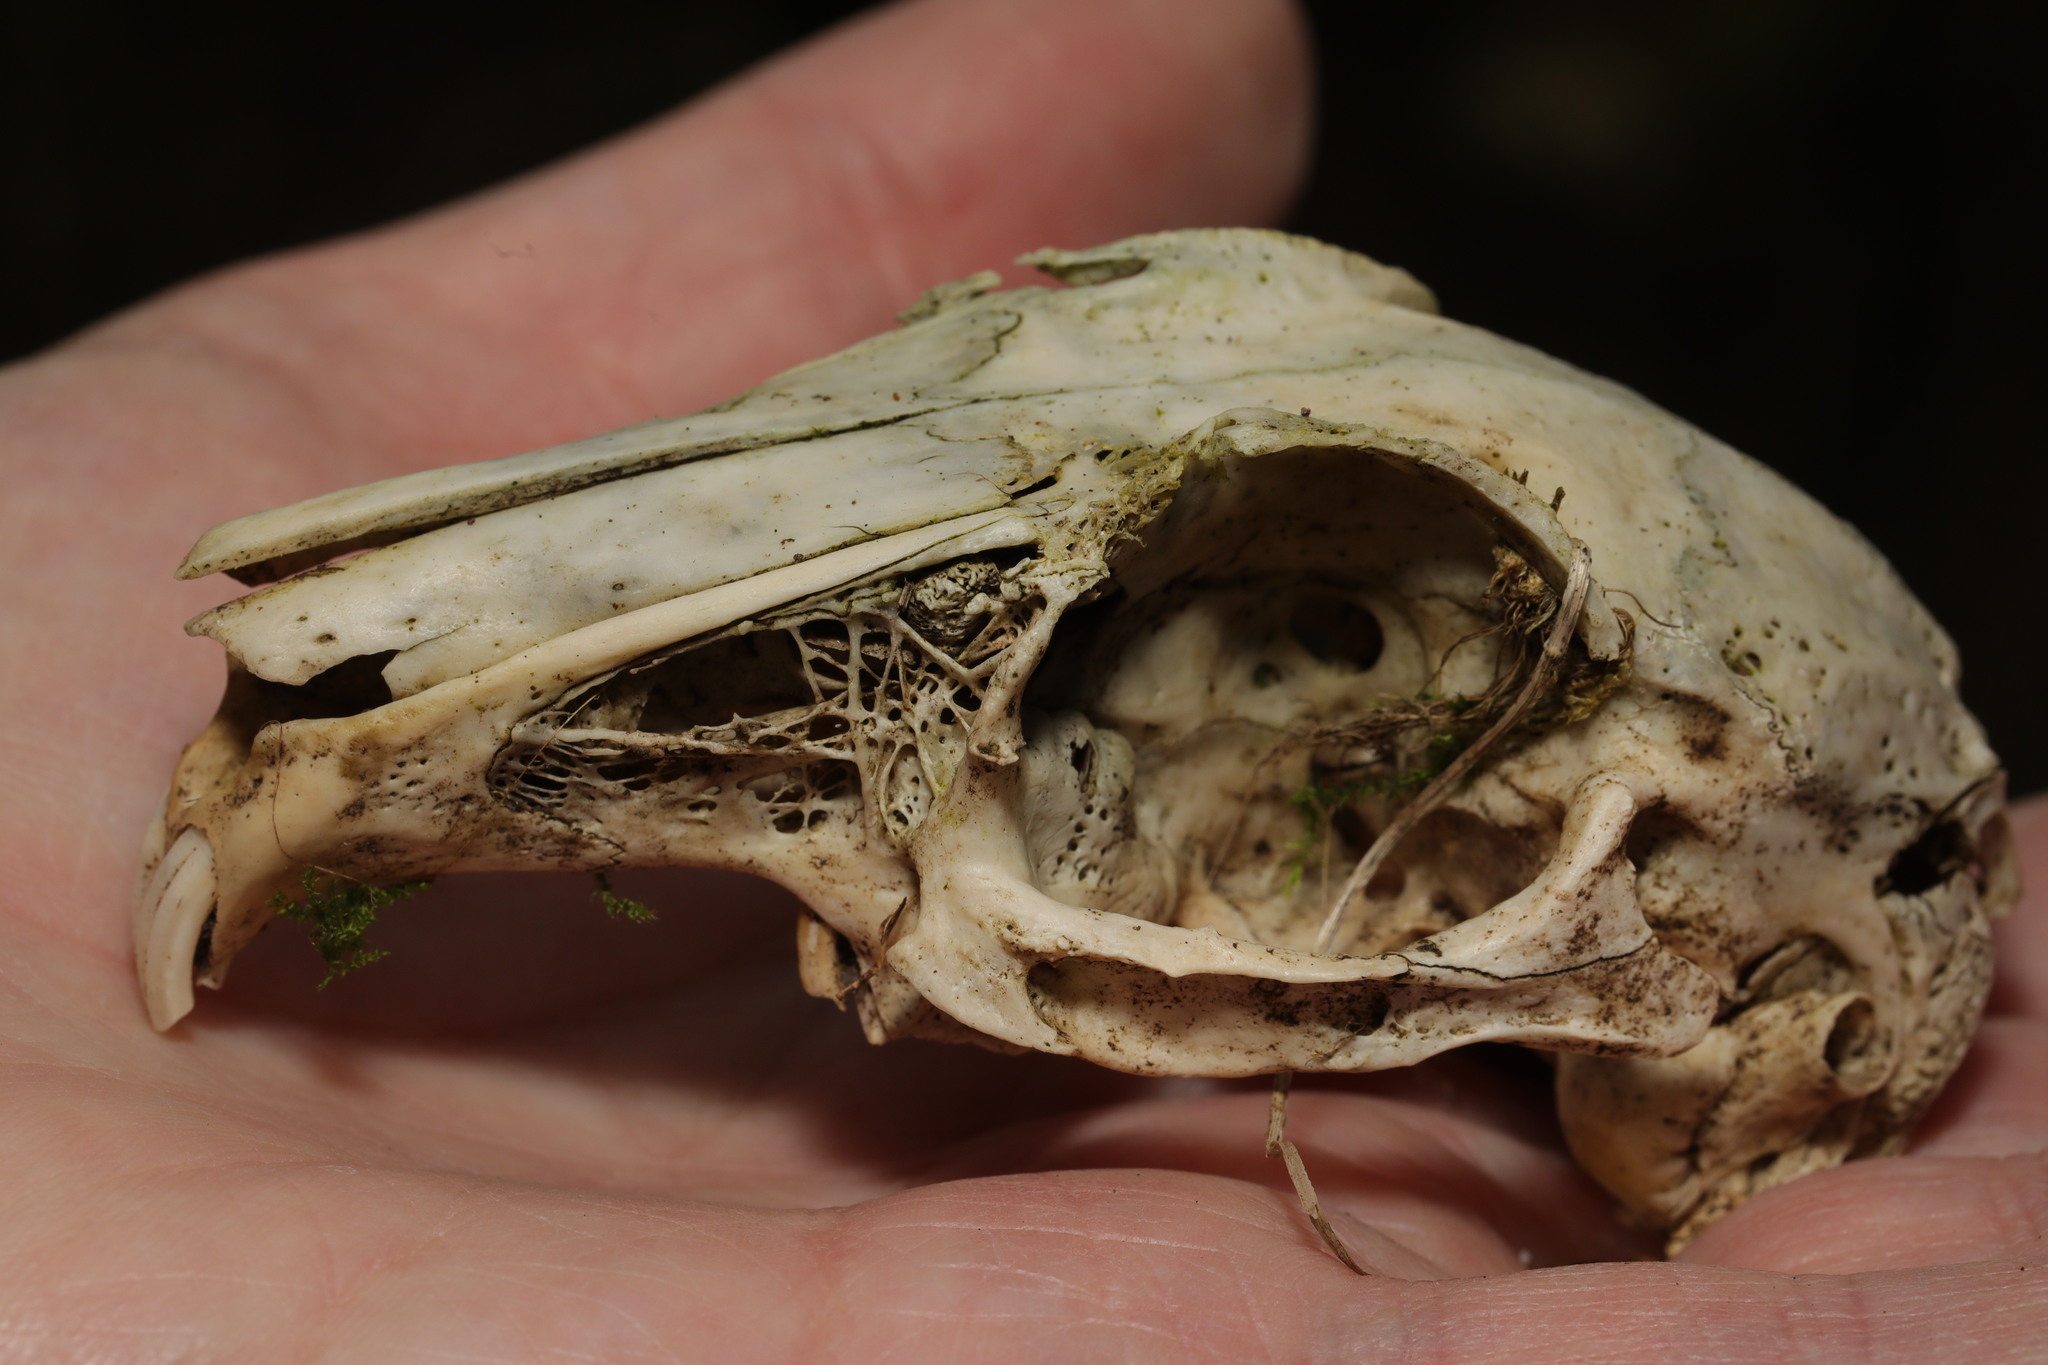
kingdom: Animalia
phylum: Chordata
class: Mammalia
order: Lagomorpha
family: Leporidae
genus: Oryctolagus
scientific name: Oryctolagus cuniculus
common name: European rabbit
